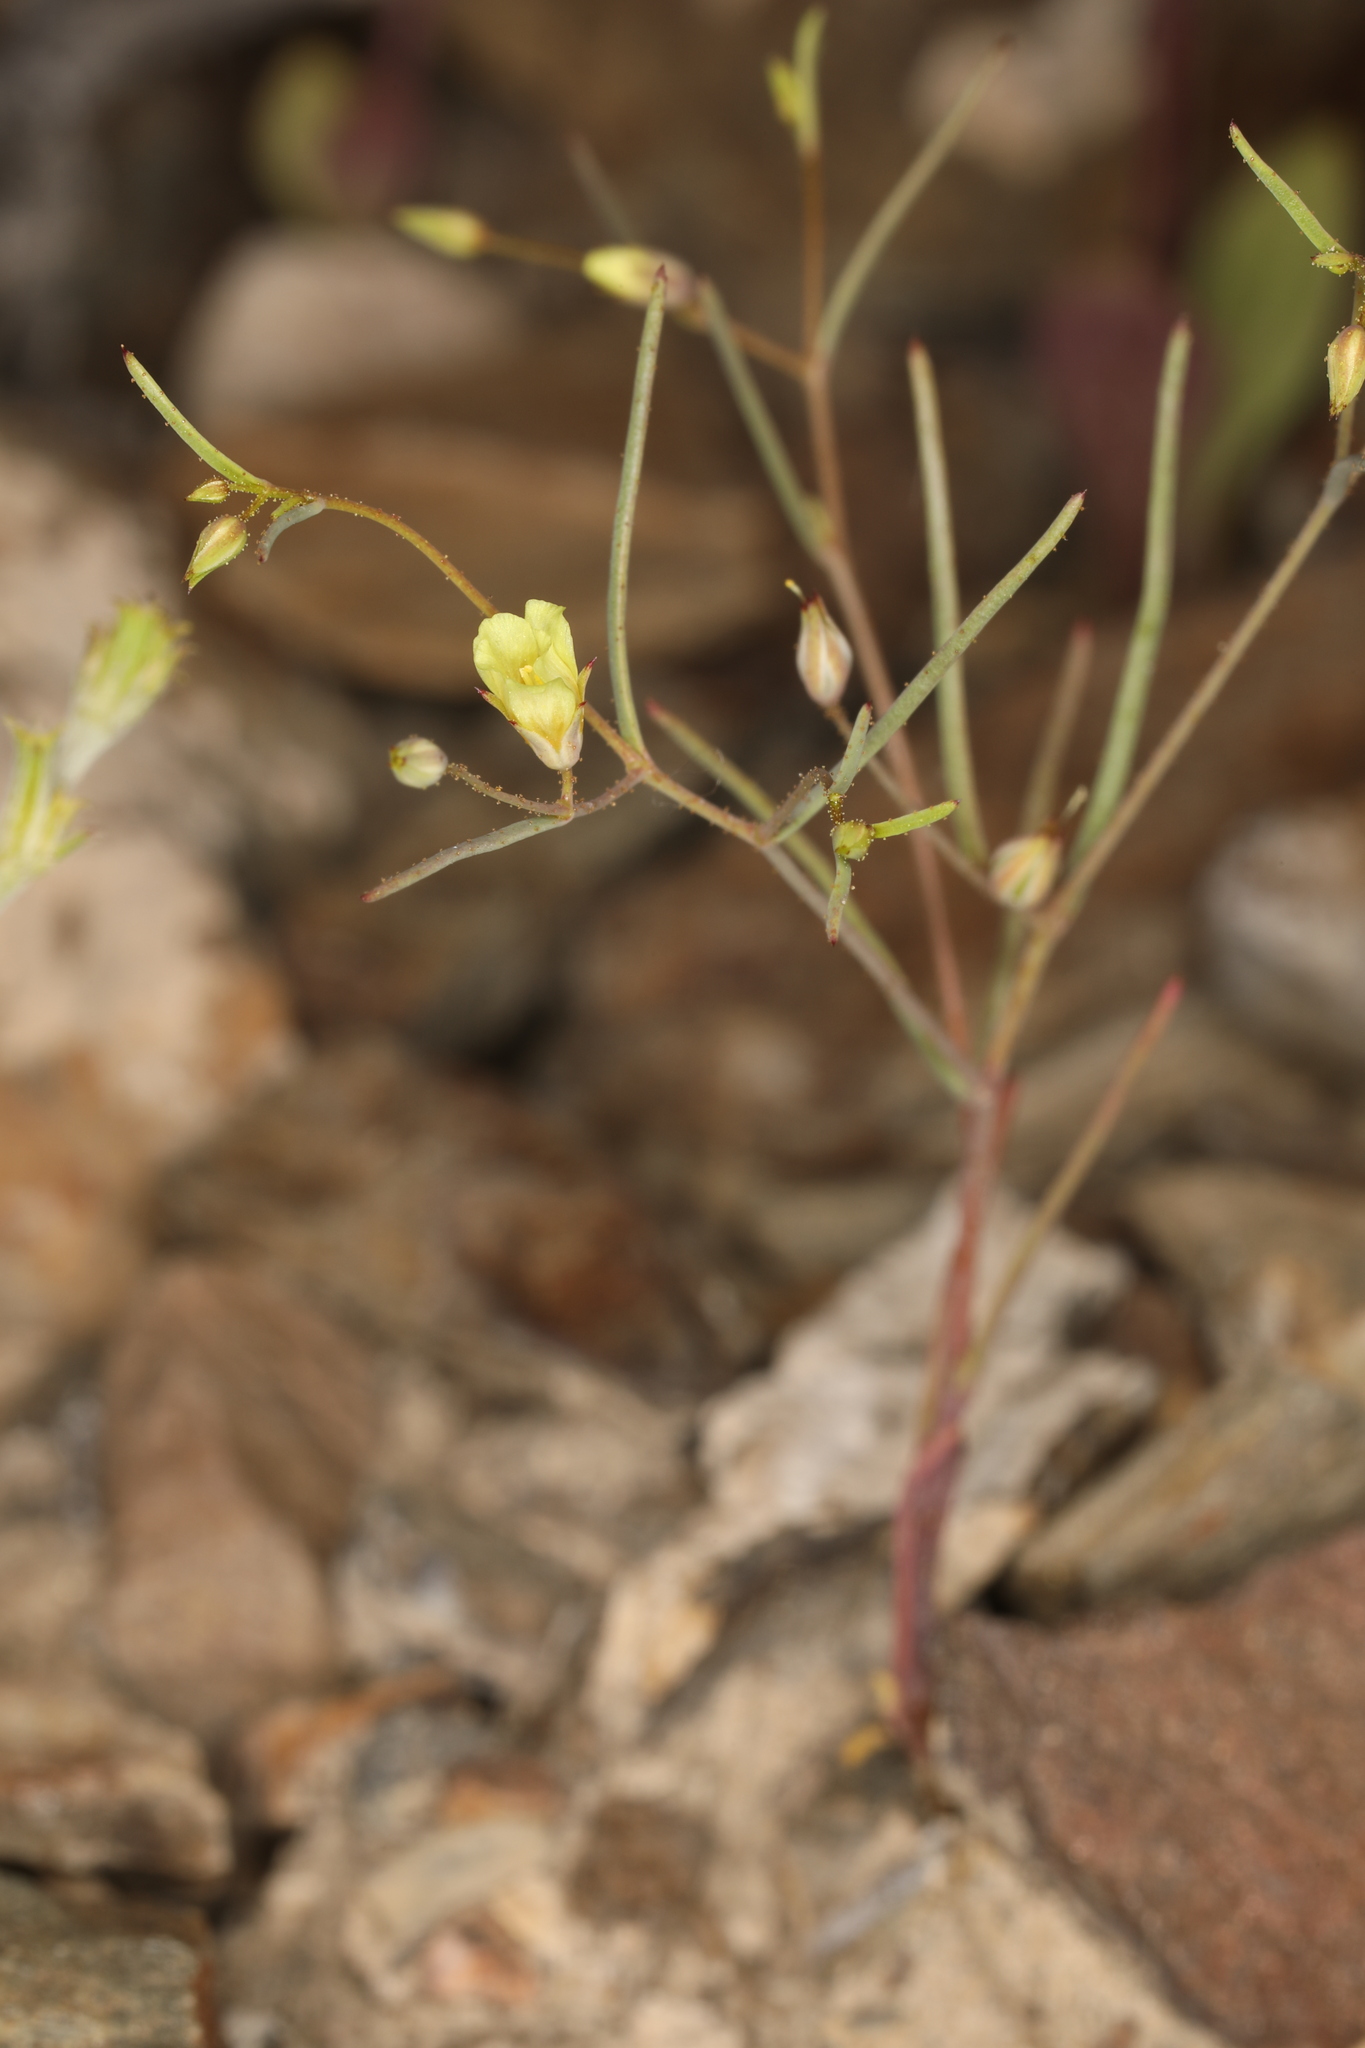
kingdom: Plantae
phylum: Tracheophyta
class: Magnoliopsida
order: Ericales
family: Polemoniaceae
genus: Linanthus
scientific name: Linanthus filiformis
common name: Yellow gilia
